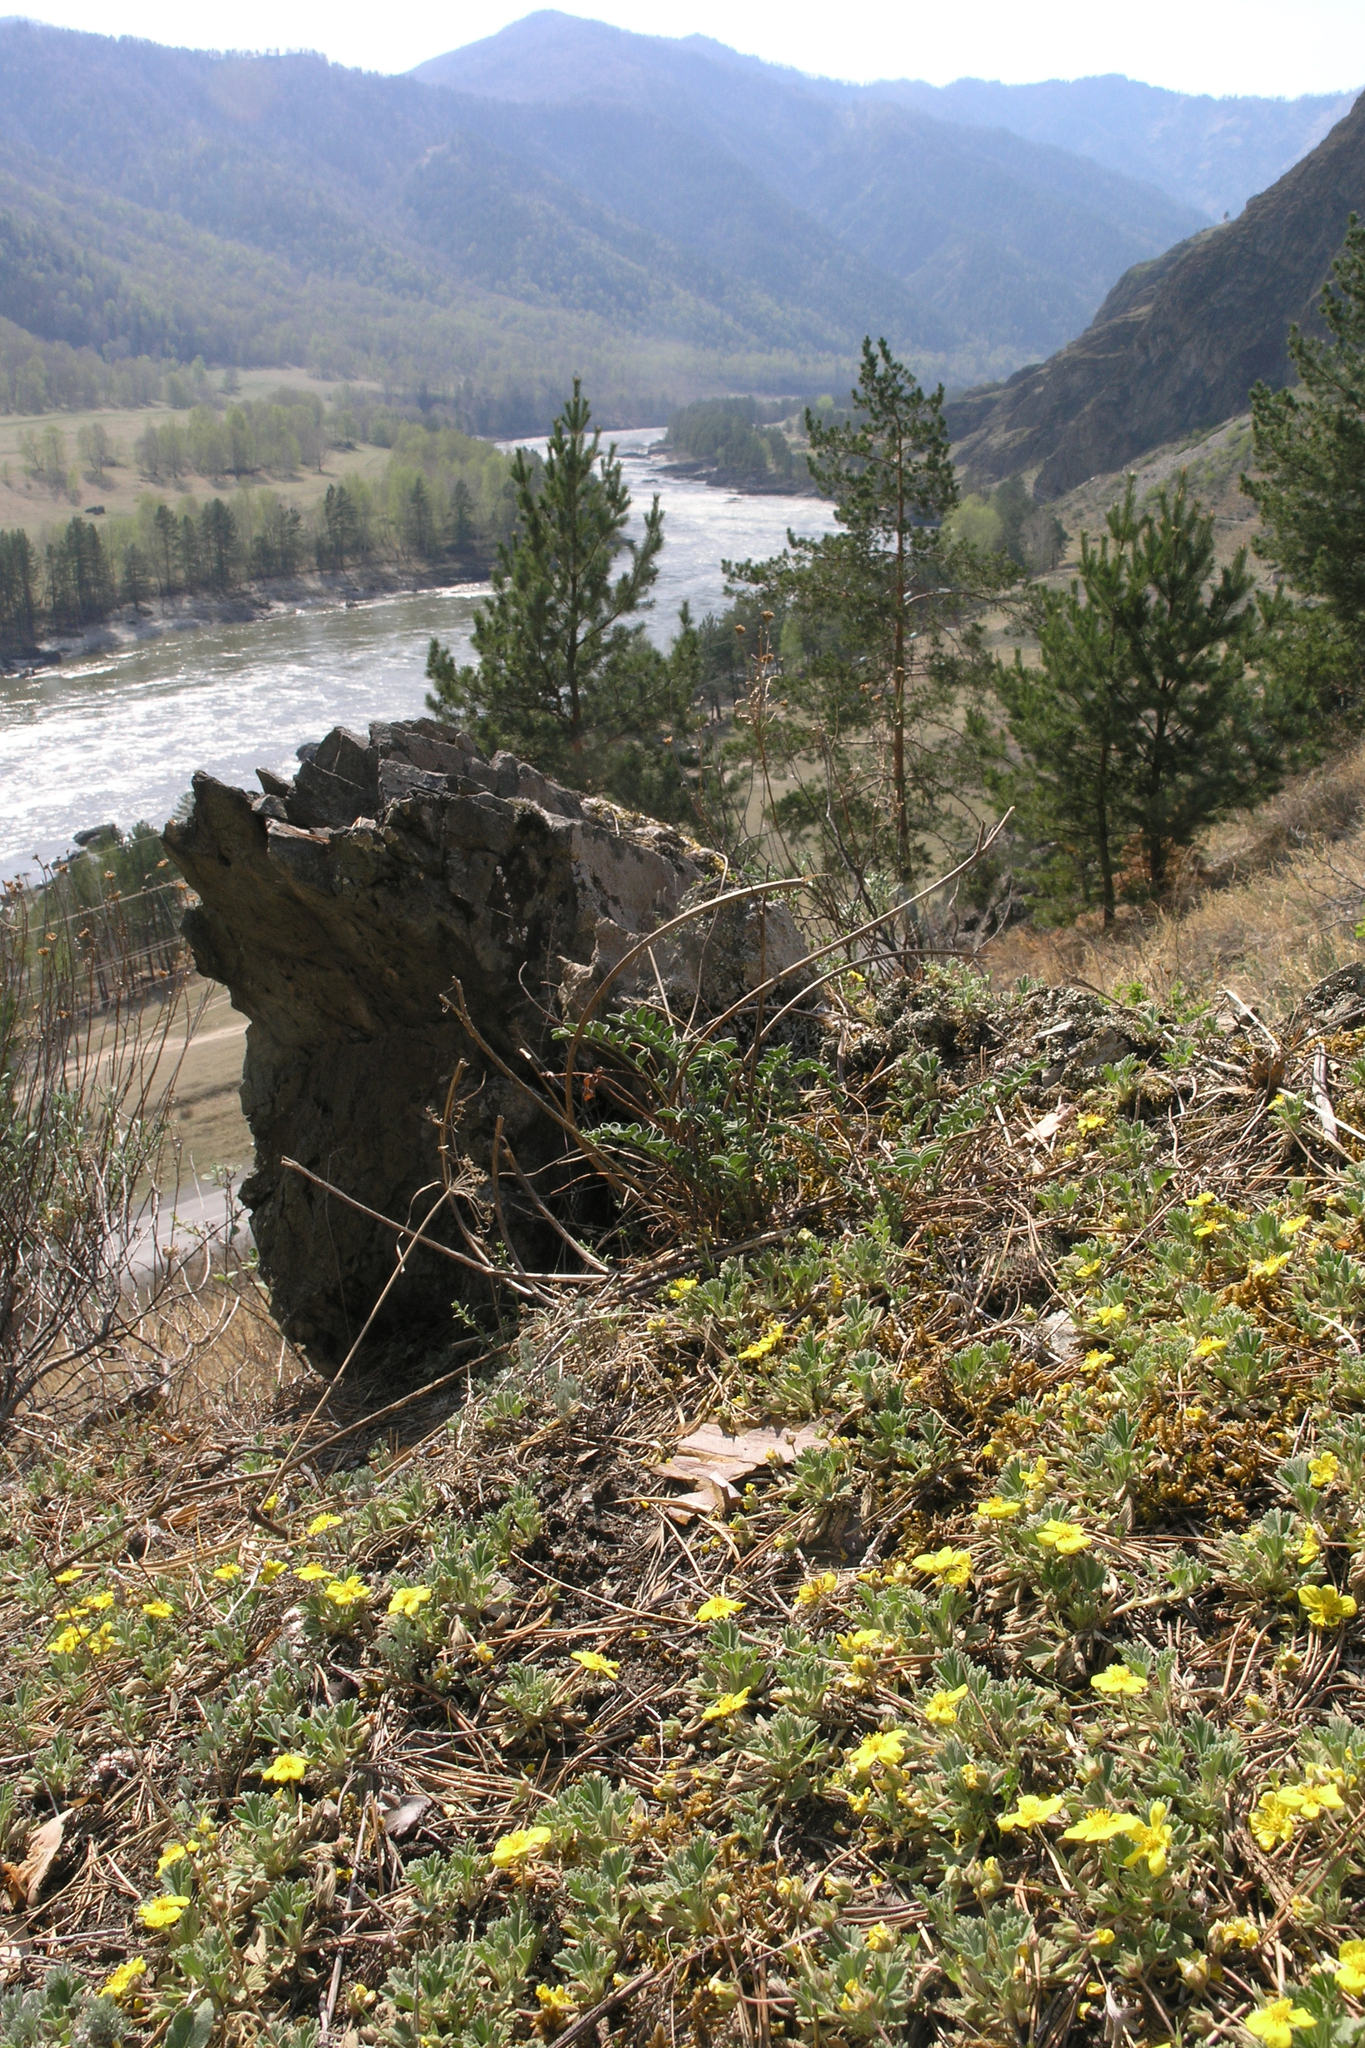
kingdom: Plantae
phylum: Tracheophyta
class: Magnoliopsida
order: Rosales
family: Rosaceae
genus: Potentilla
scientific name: Potentilla acaulis
